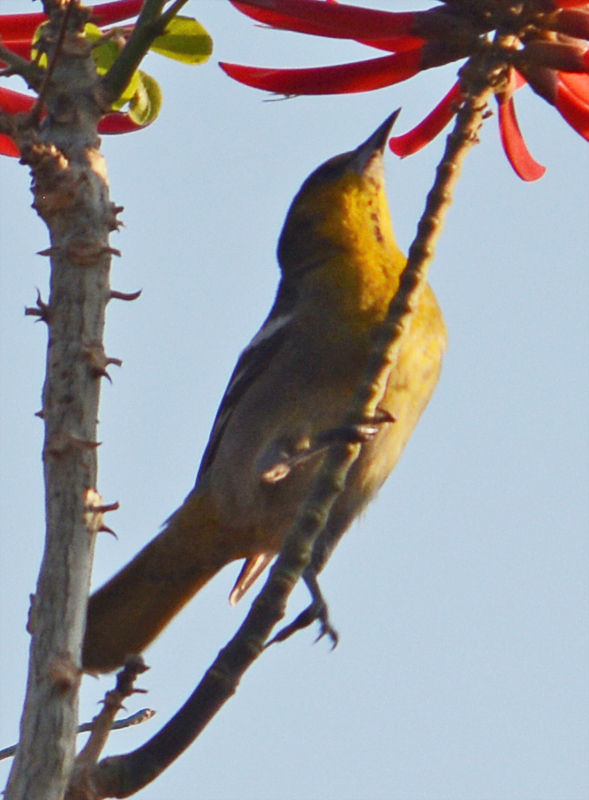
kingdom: Animalia
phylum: Chordata
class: Aves
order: Passeriformes
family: Icteridae
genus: Icterus
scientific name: Icterus abeillei
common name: Black-backed oriole
